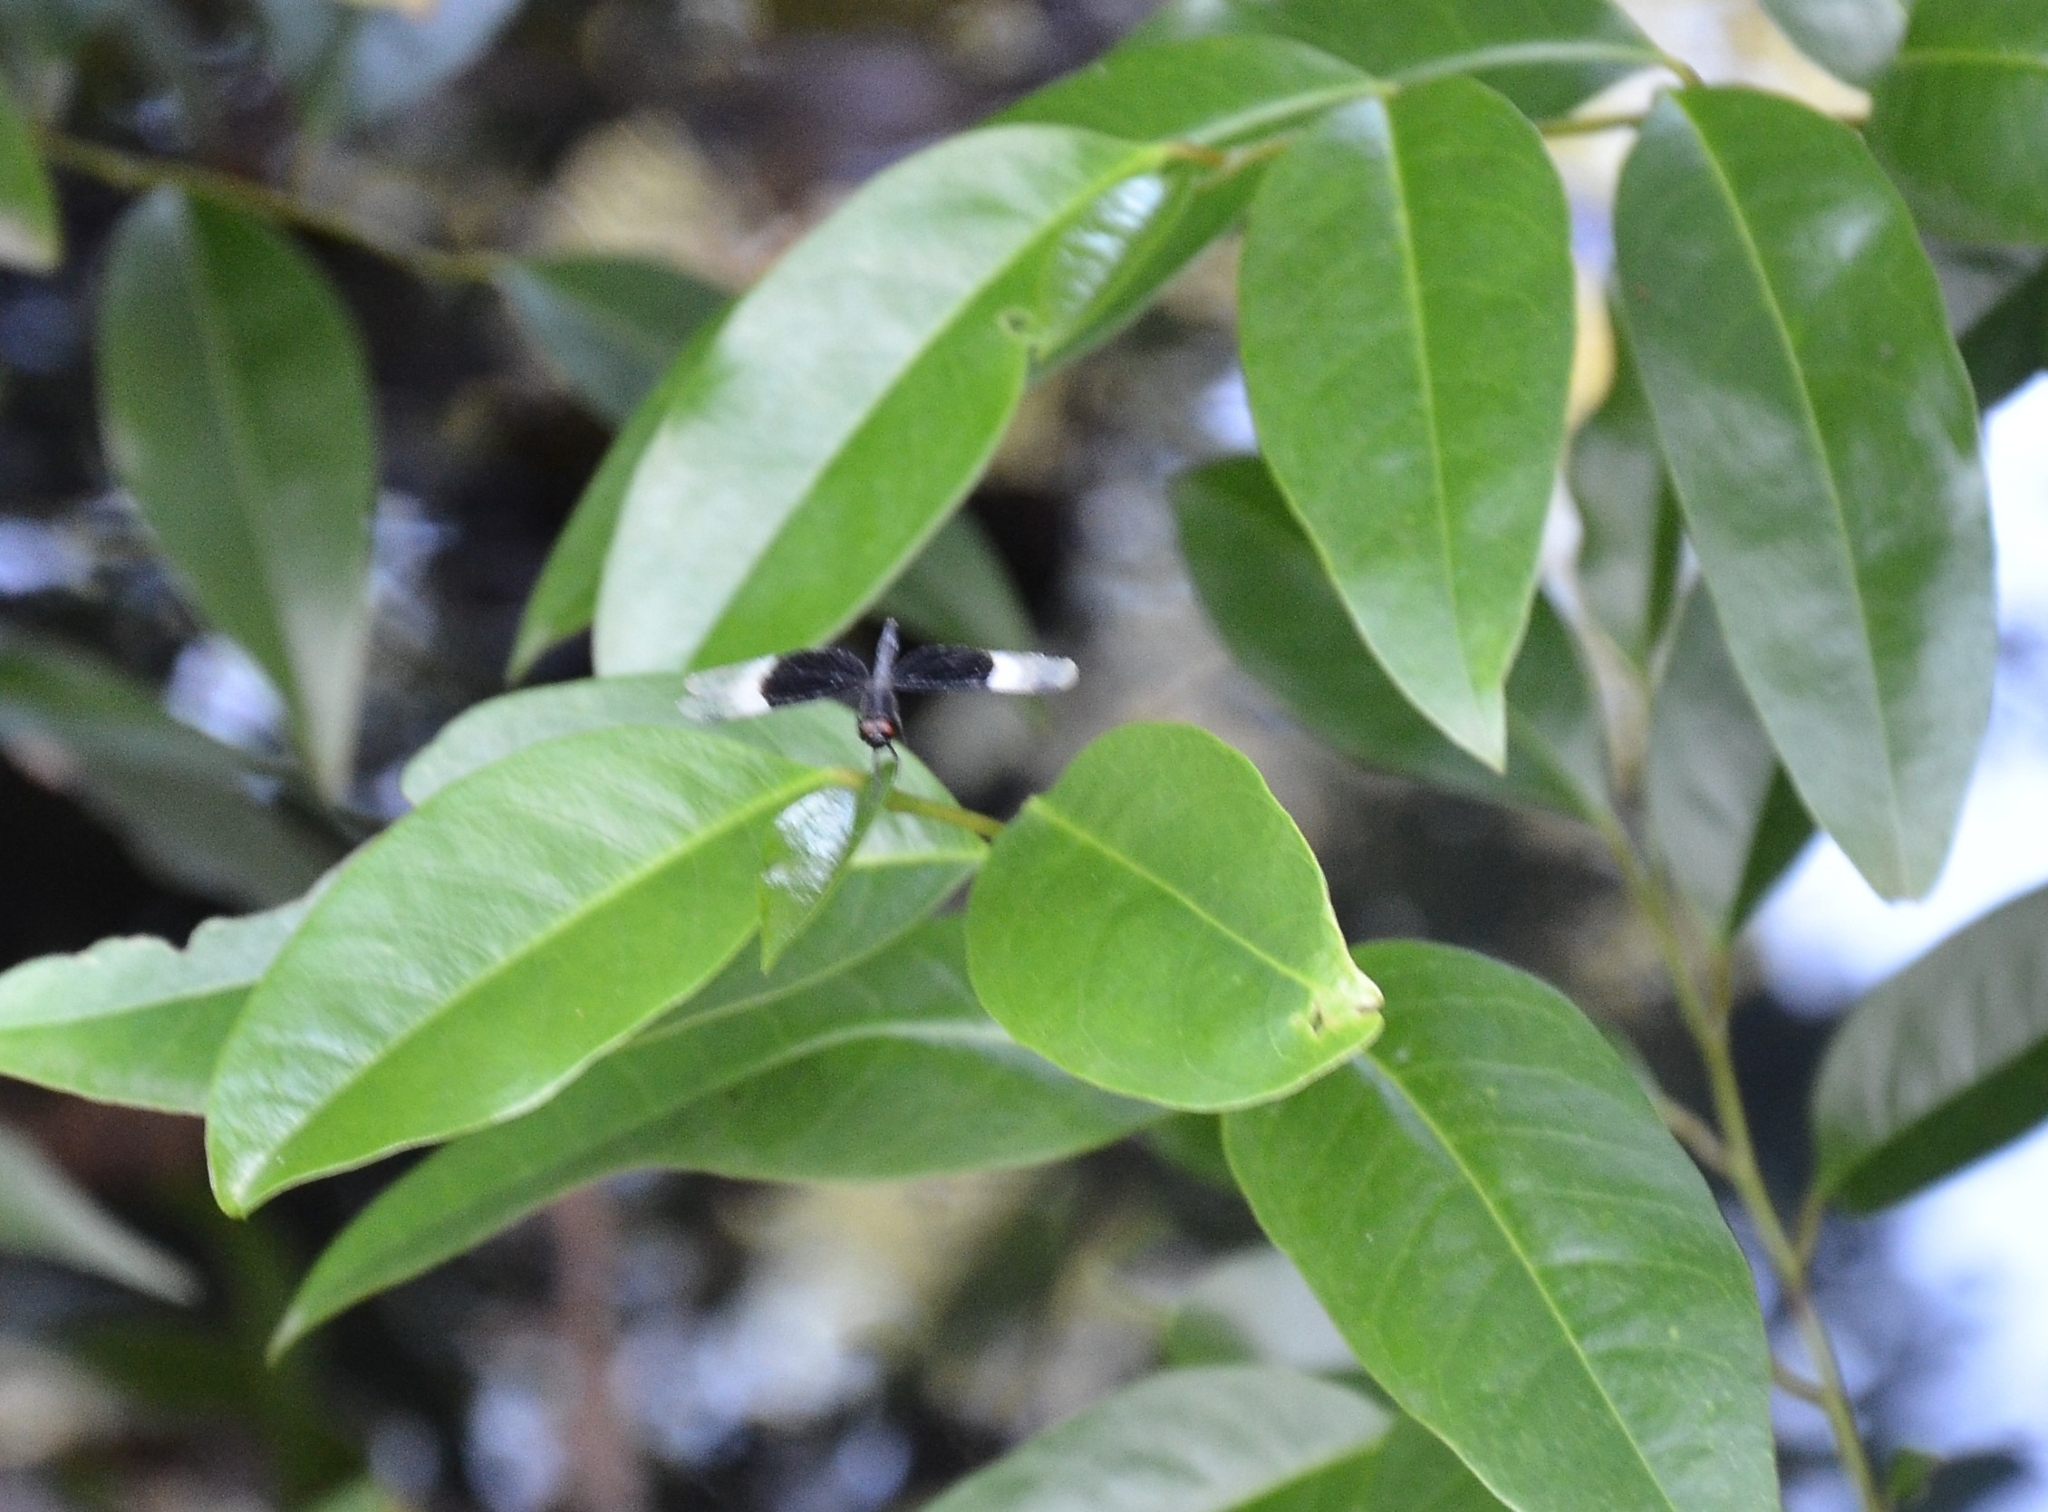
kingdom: Animalia
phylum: Arthropoda
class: Insecta
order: Odonata
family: Libellulidae
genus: Neurothemis
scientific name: Neurothemis tullia
